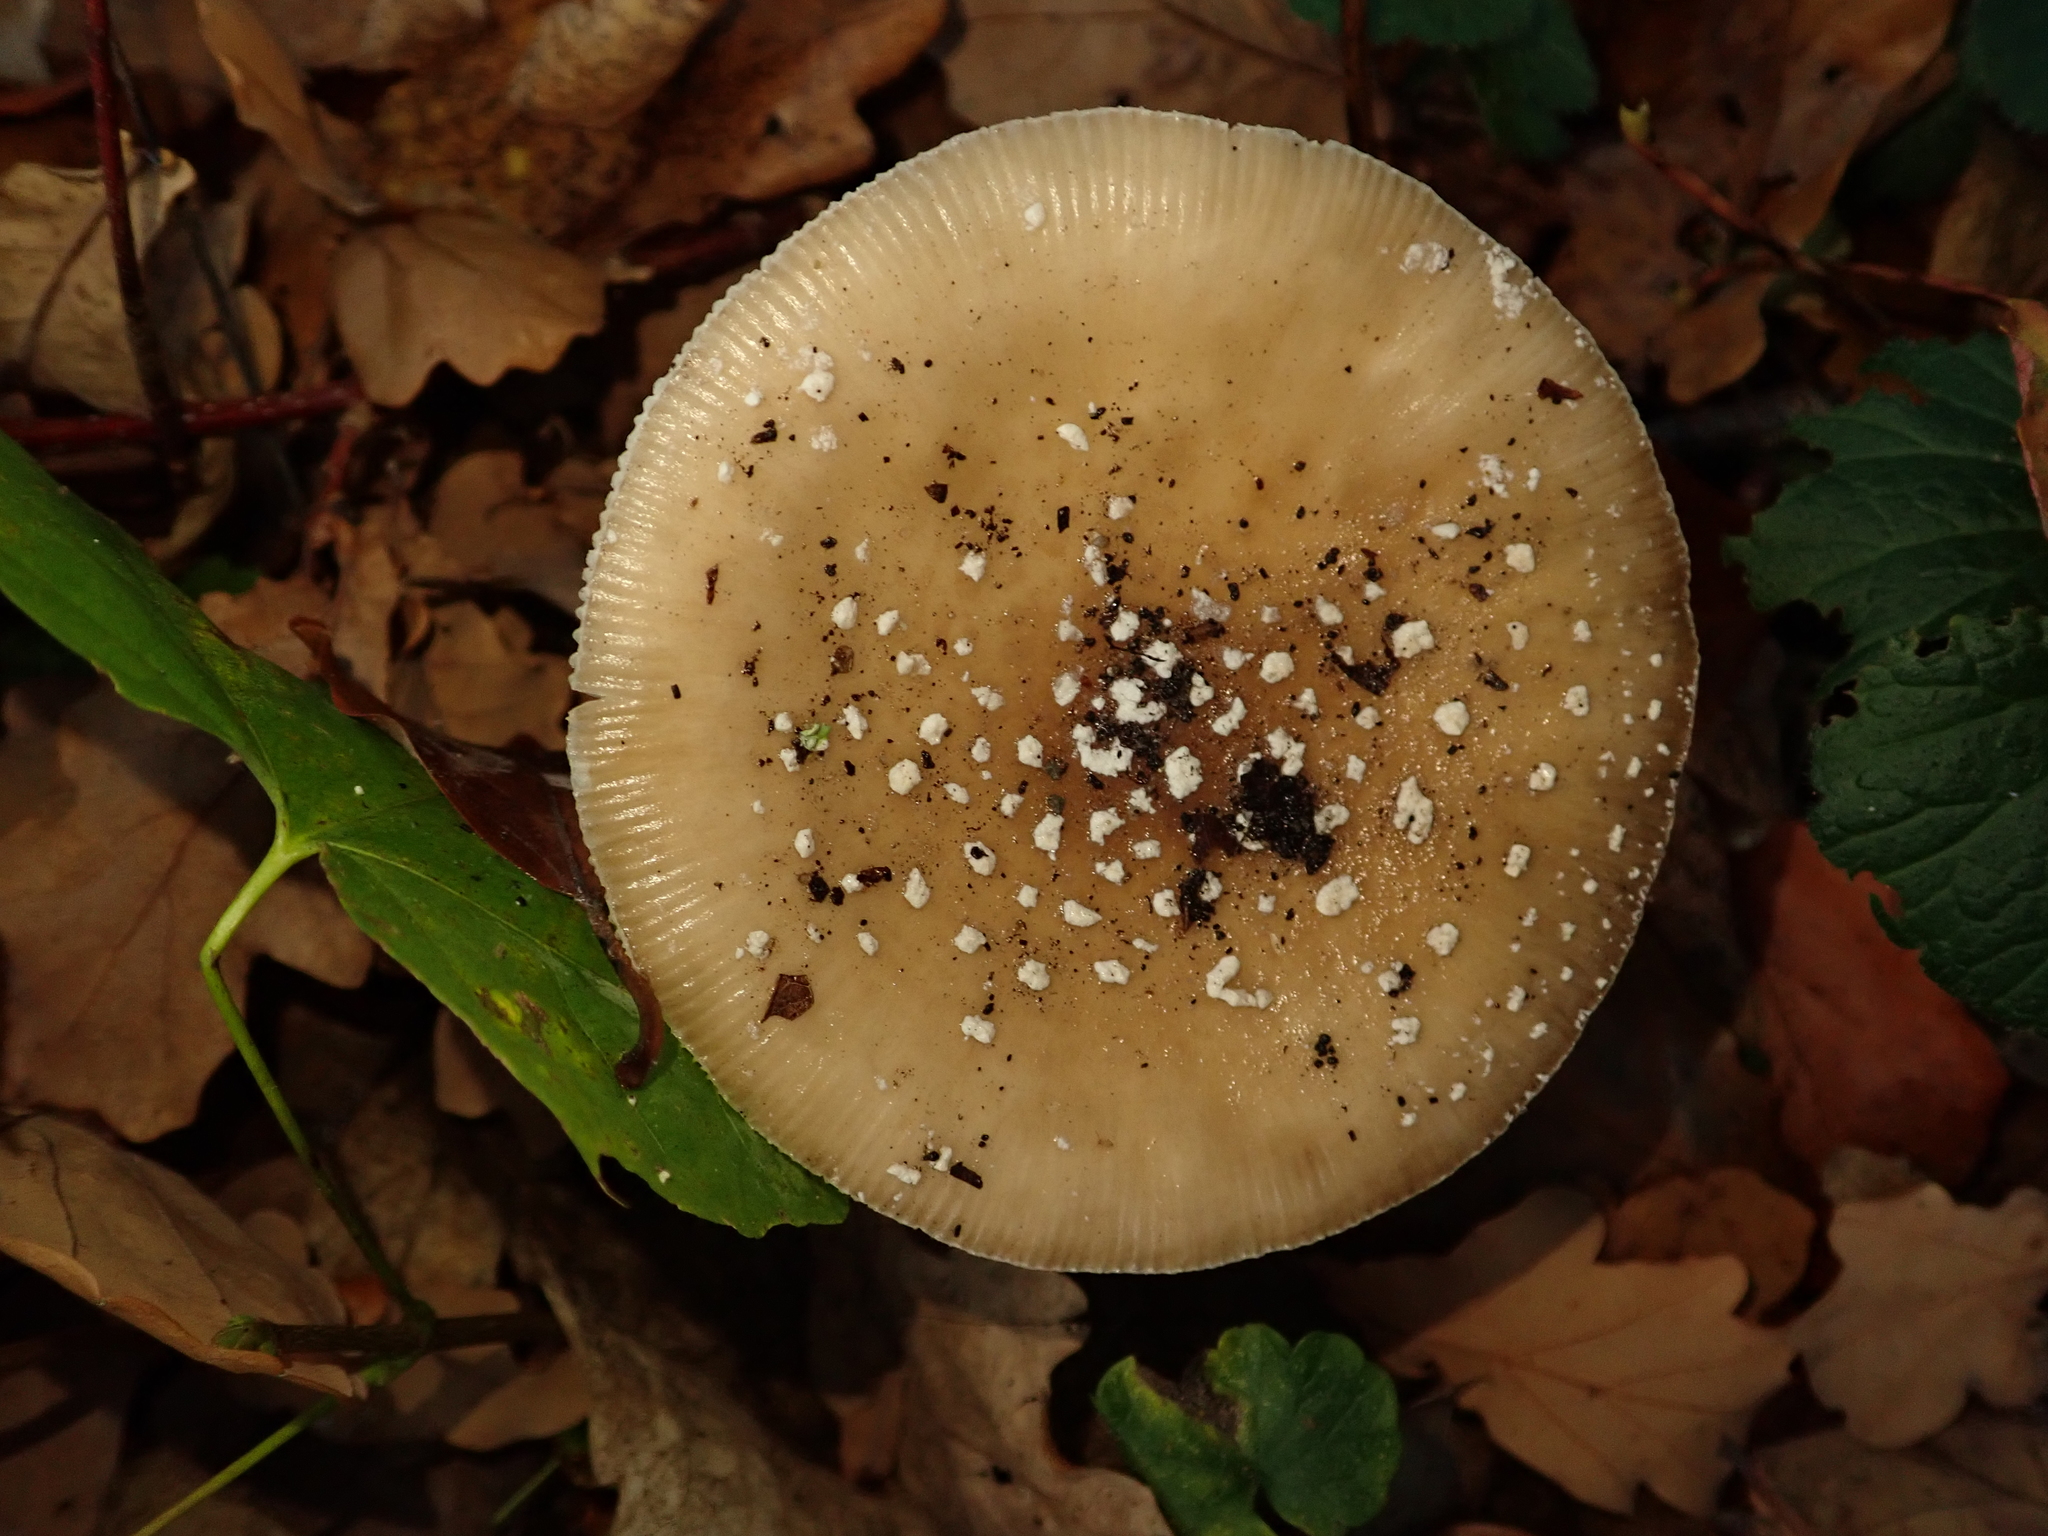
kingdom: Fungi
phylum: Basidiomycota
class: Agaricomycetes
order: Agaricales
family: Amanitaceae
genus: Amanita
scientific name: Amanita pantherina
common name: Panthercap
